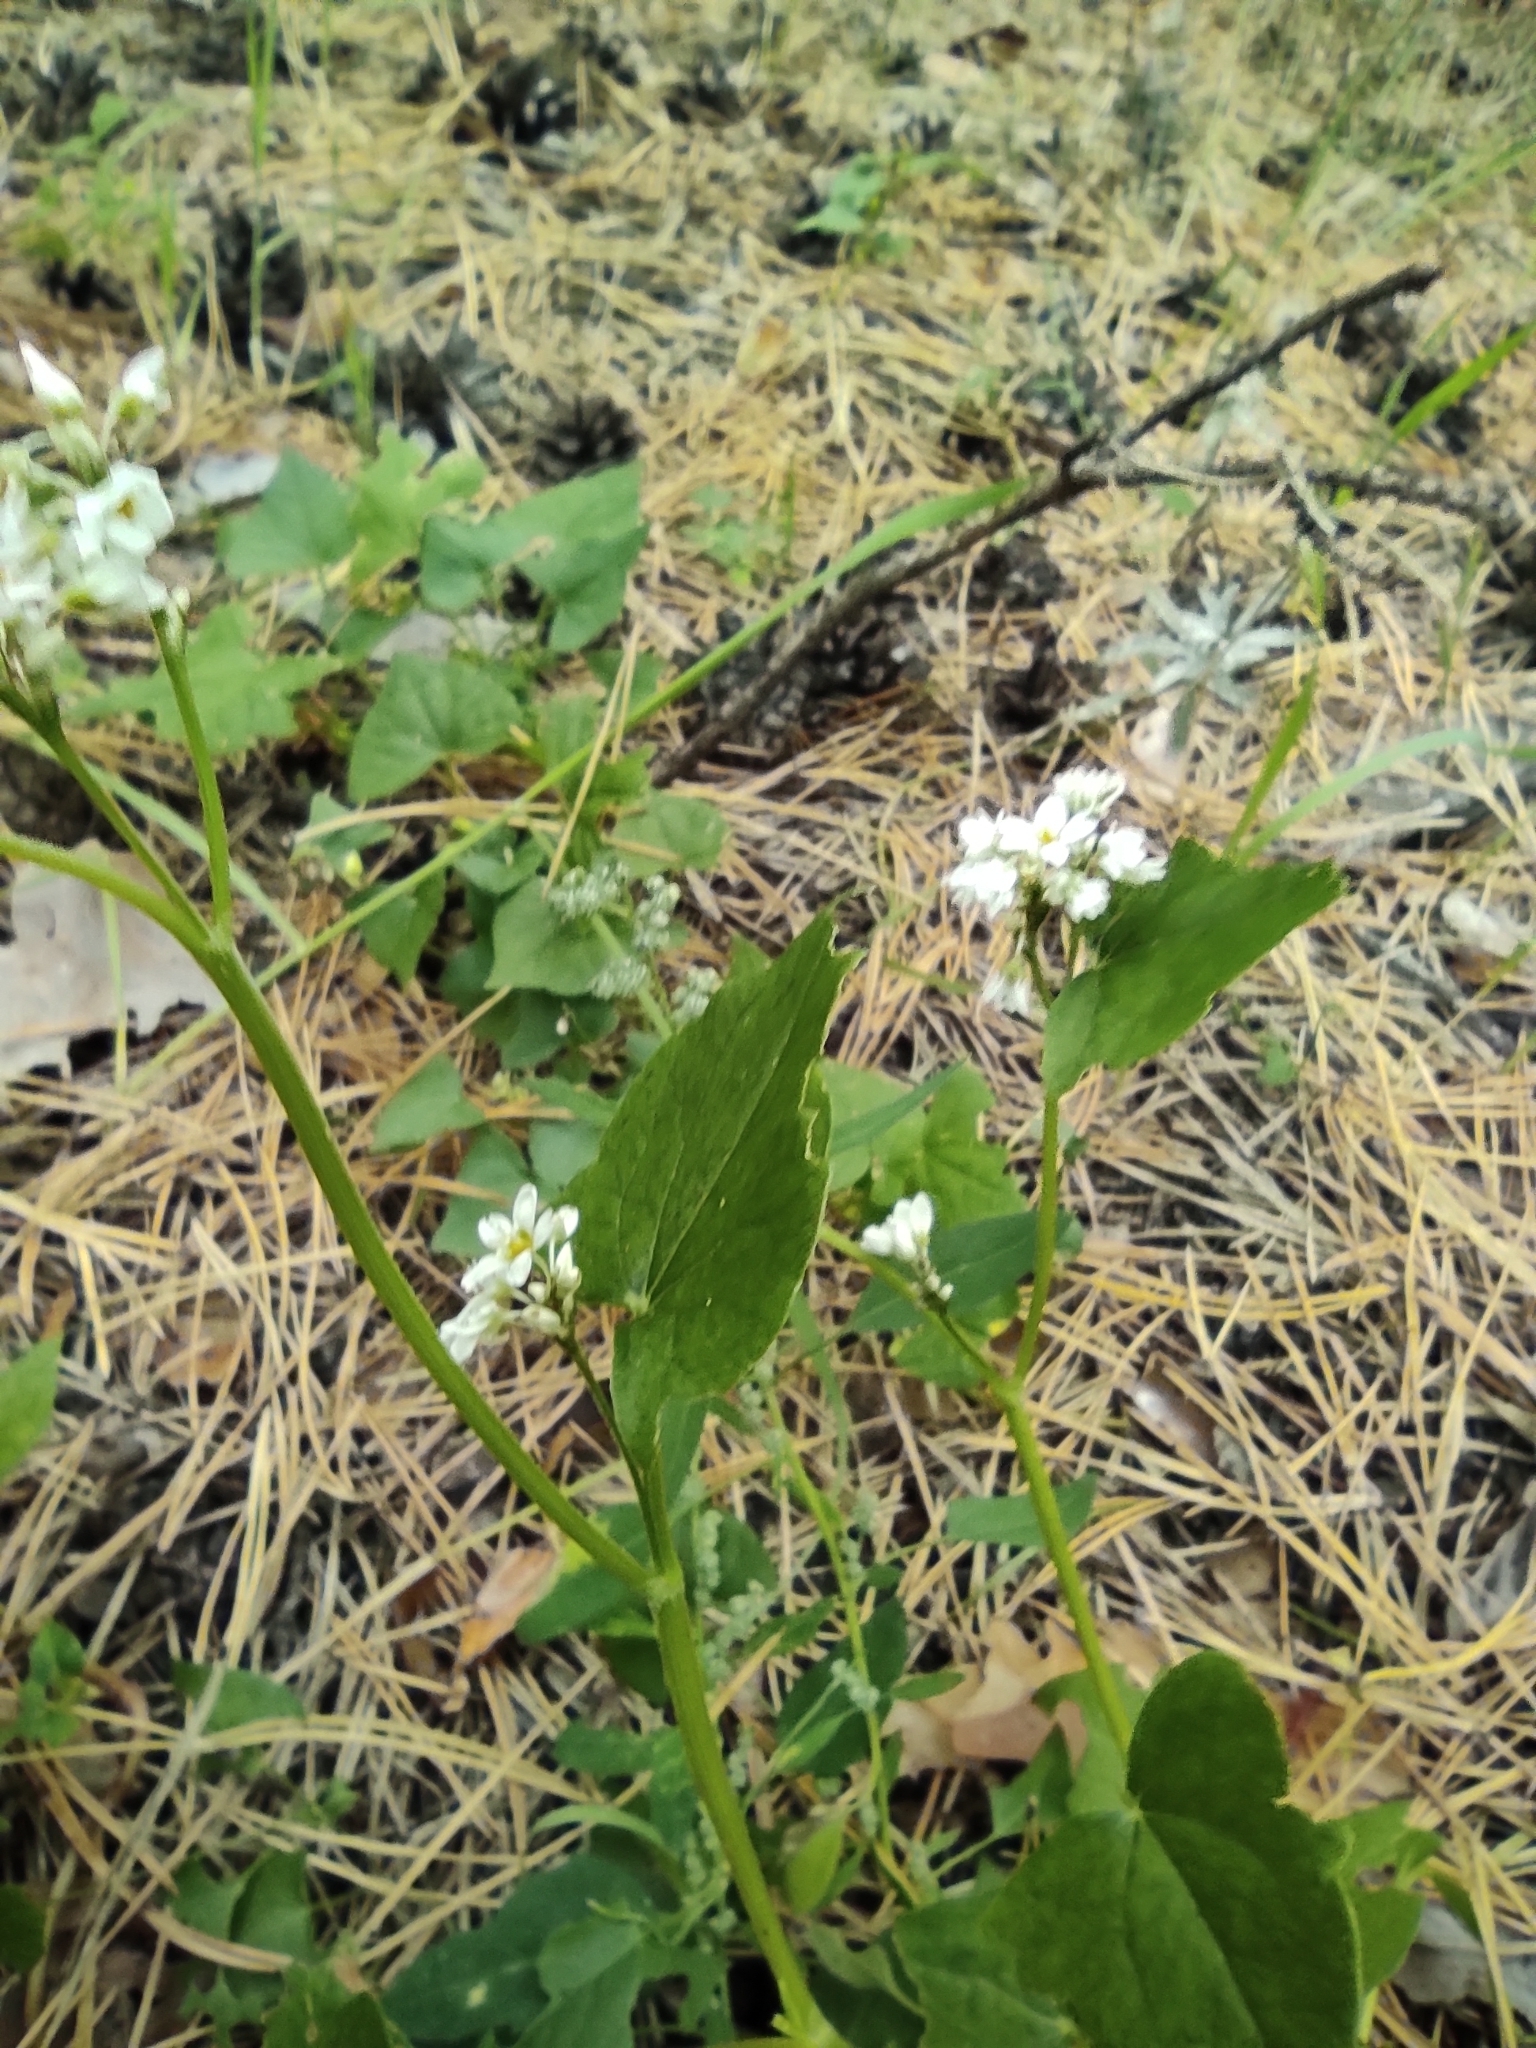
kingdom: Plantae
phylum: Tracheophyta
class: Magnoliopsida
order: Caryophyllales
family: Polygonaceae
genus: Fagopyrum
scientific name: Fagopyrum esculentum
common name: Buckwheat
